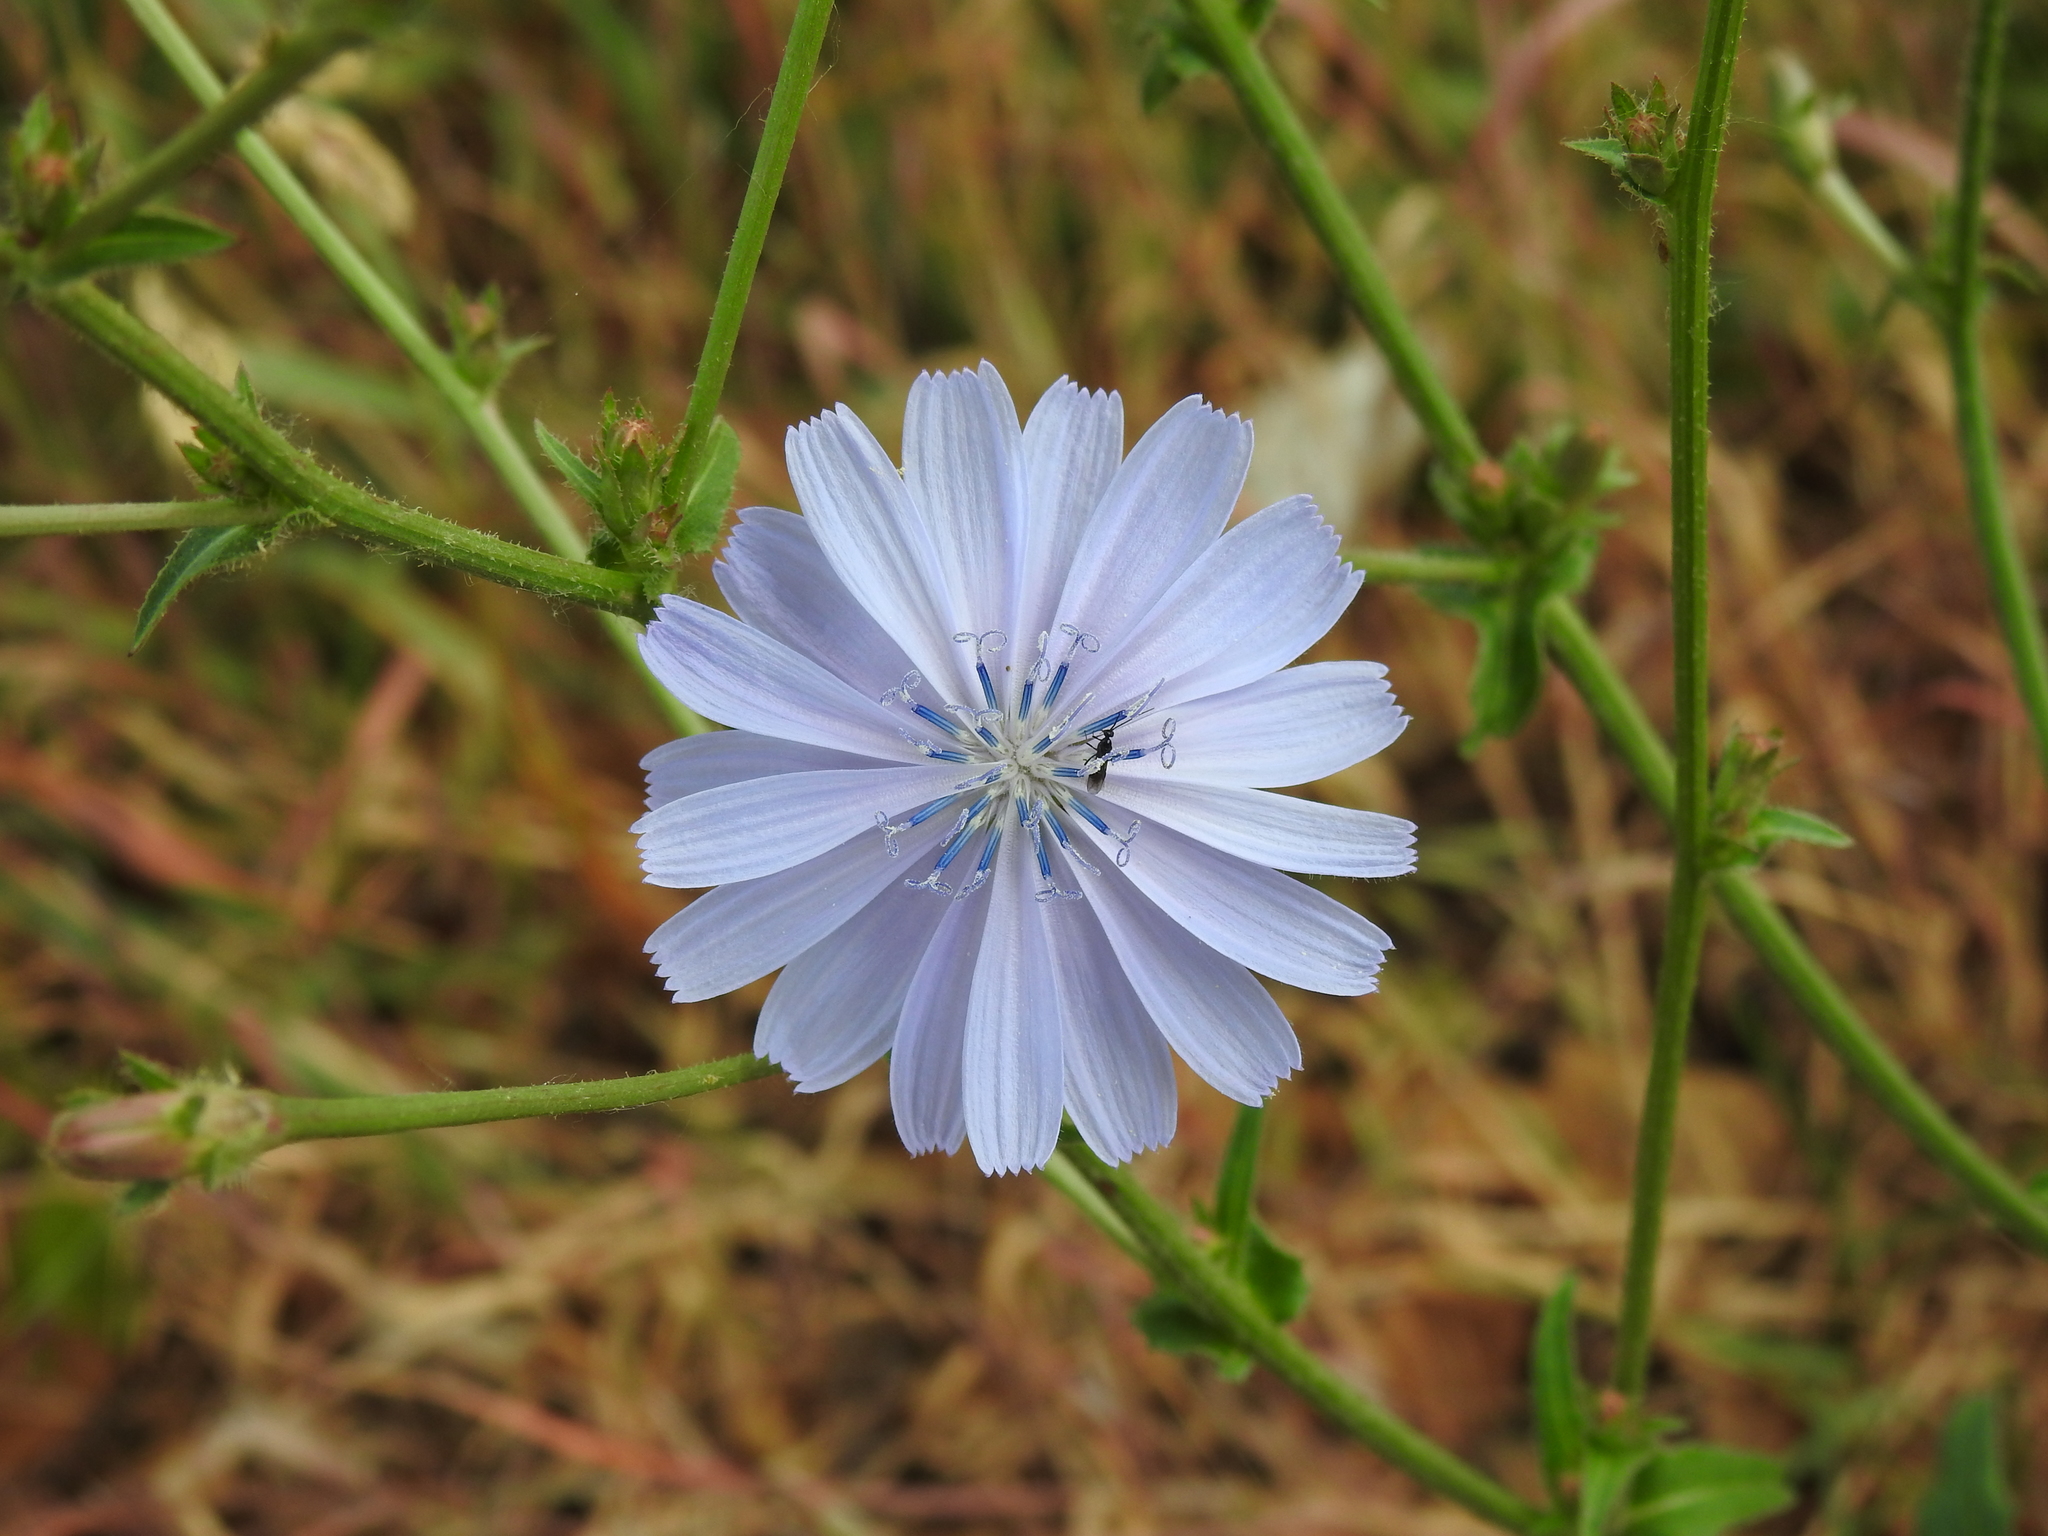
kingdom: Plantae
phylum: Tracheophyta
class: Magnoliopsida
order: Asterales
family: Asteraceae
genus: Cichorium
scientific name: Cichorium intybus
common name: Chicory
